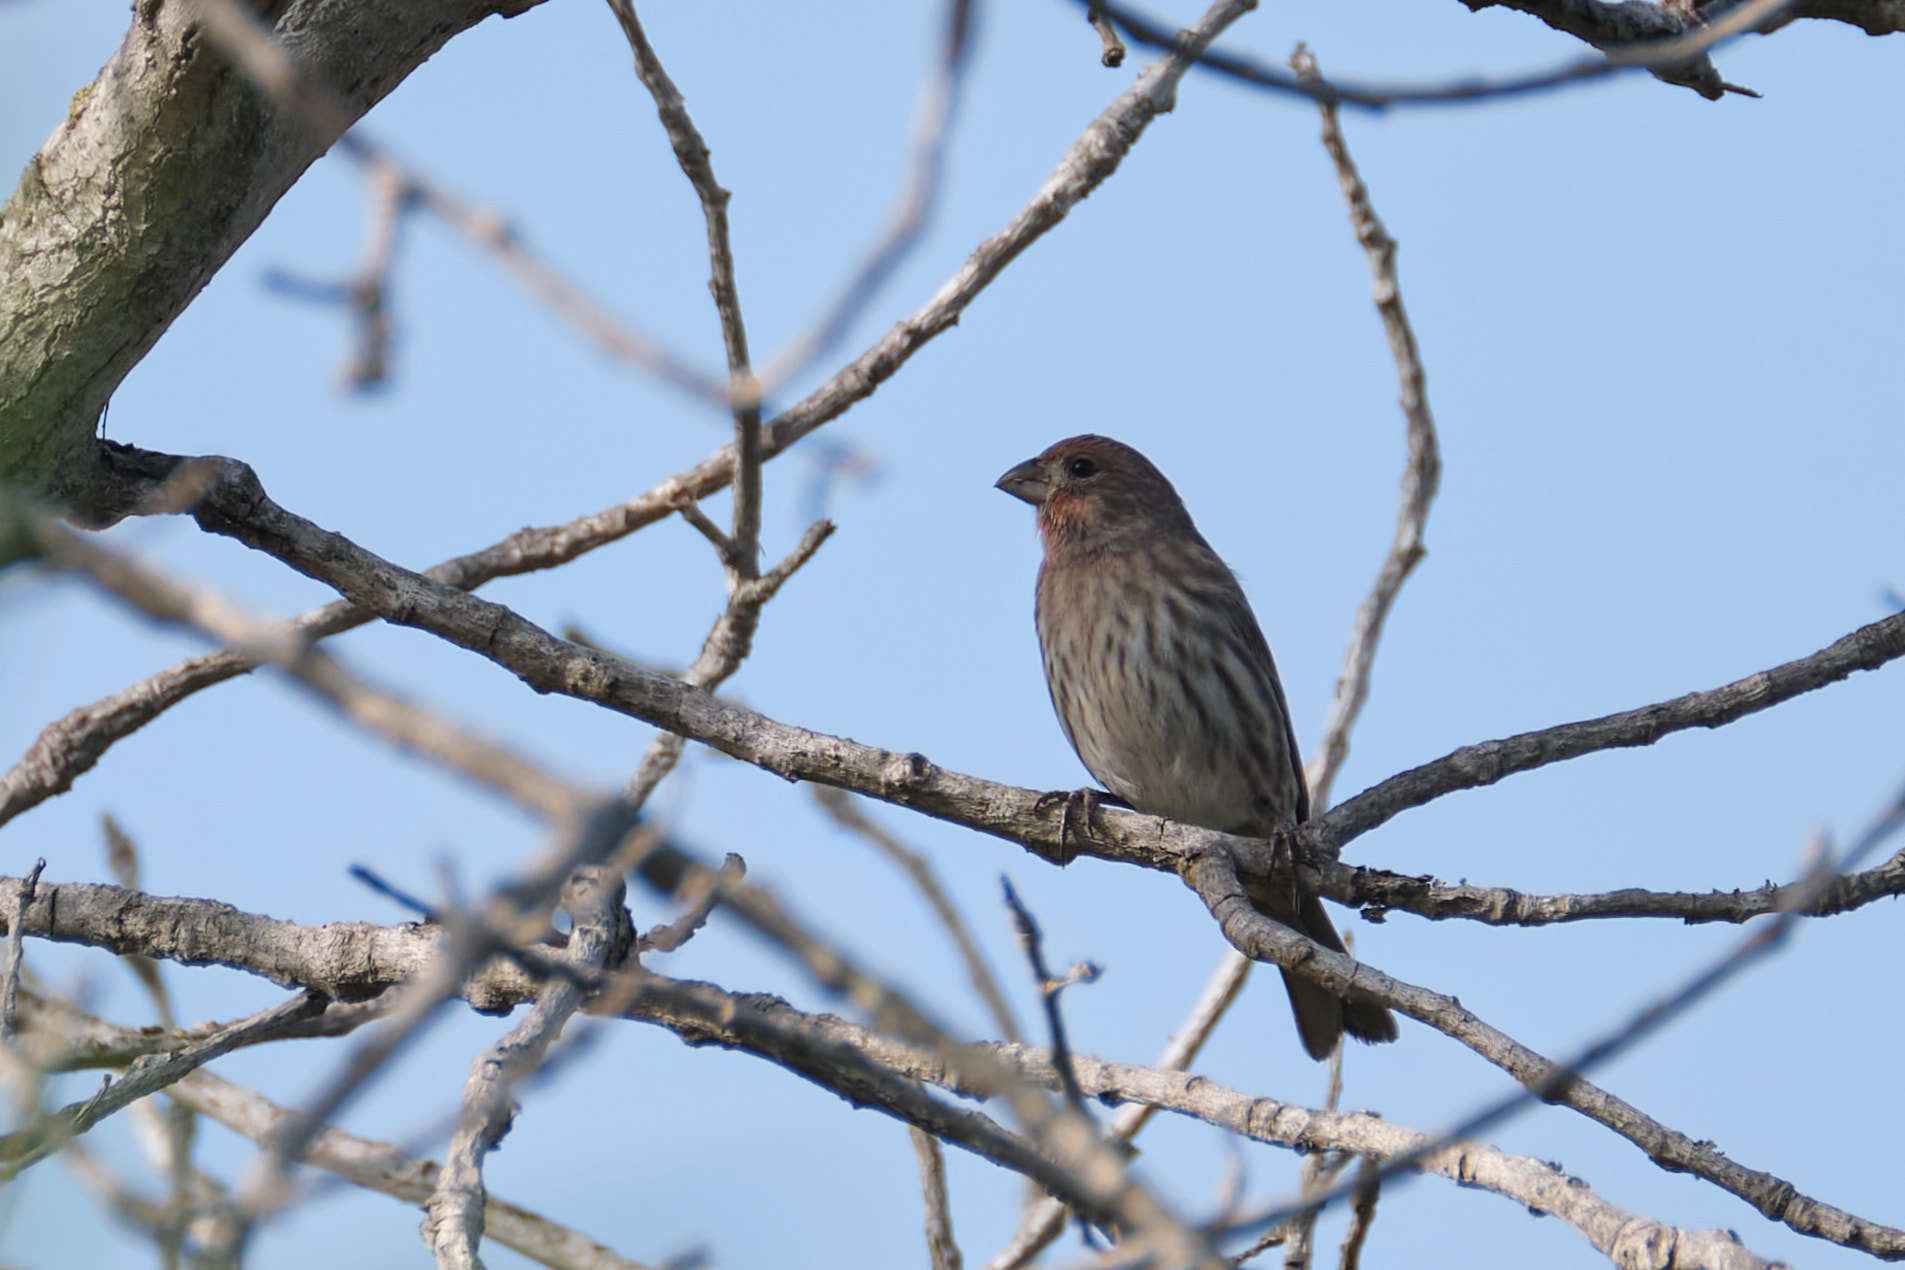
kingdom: Animalia
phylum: Chordata
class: Aves
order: Passeriformes
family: Fringillidae
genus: Haemorhous
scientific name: Haemorhous mexicanus
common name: House finch
